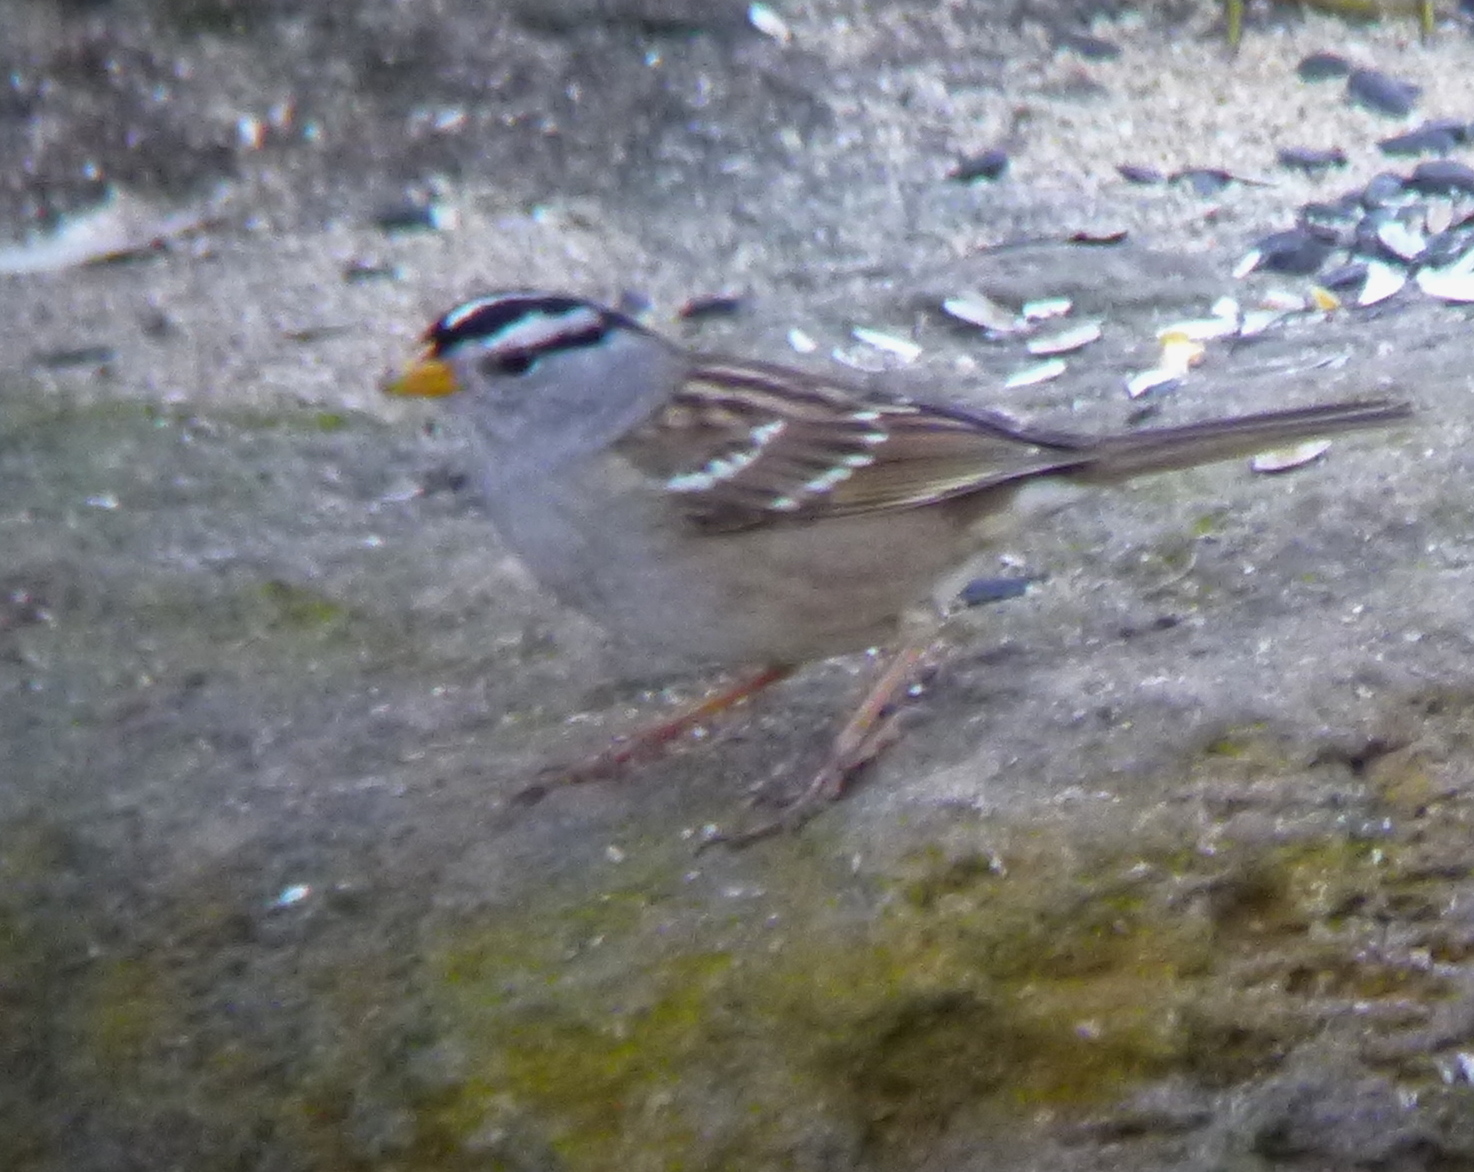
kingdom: Animalia
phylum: Chordata
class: Aves
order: Passeriformes
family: Passerellidae
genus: Zonotrichia
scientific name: Zonotrichia leucophrys
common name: White-crowned sparrow
